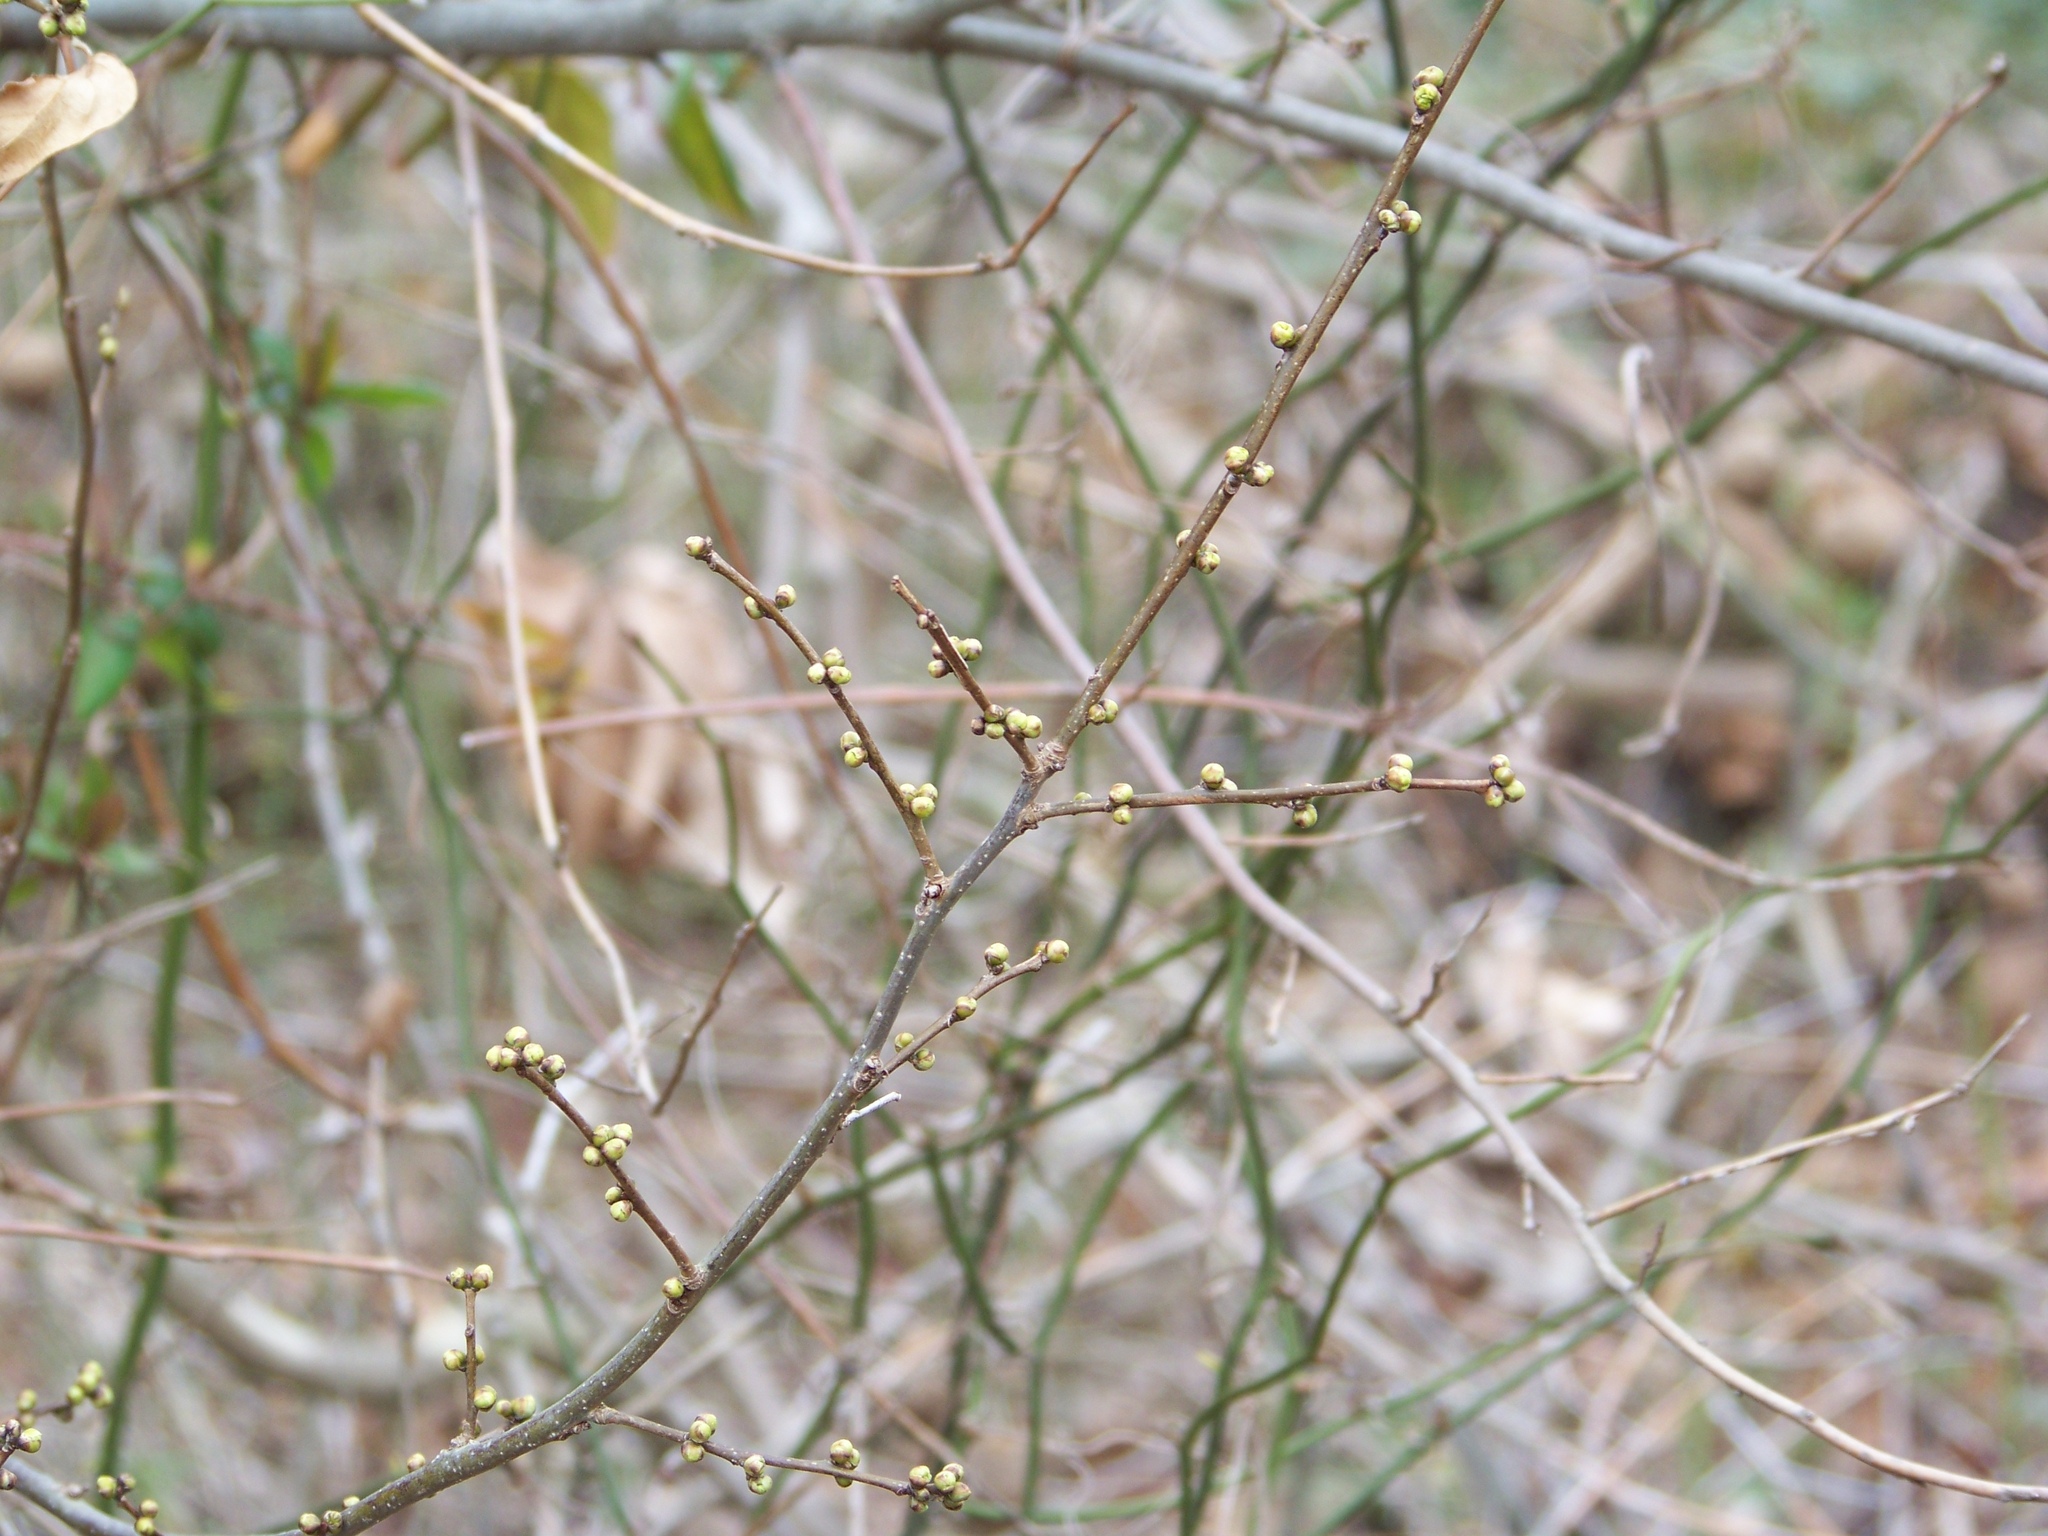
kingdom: Plantae
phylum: Tracheophyta
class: Magnoliopsida
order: Laurales
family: Lauraceae
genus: Lindera
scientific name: Lindera benzoin
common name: Spicebush
